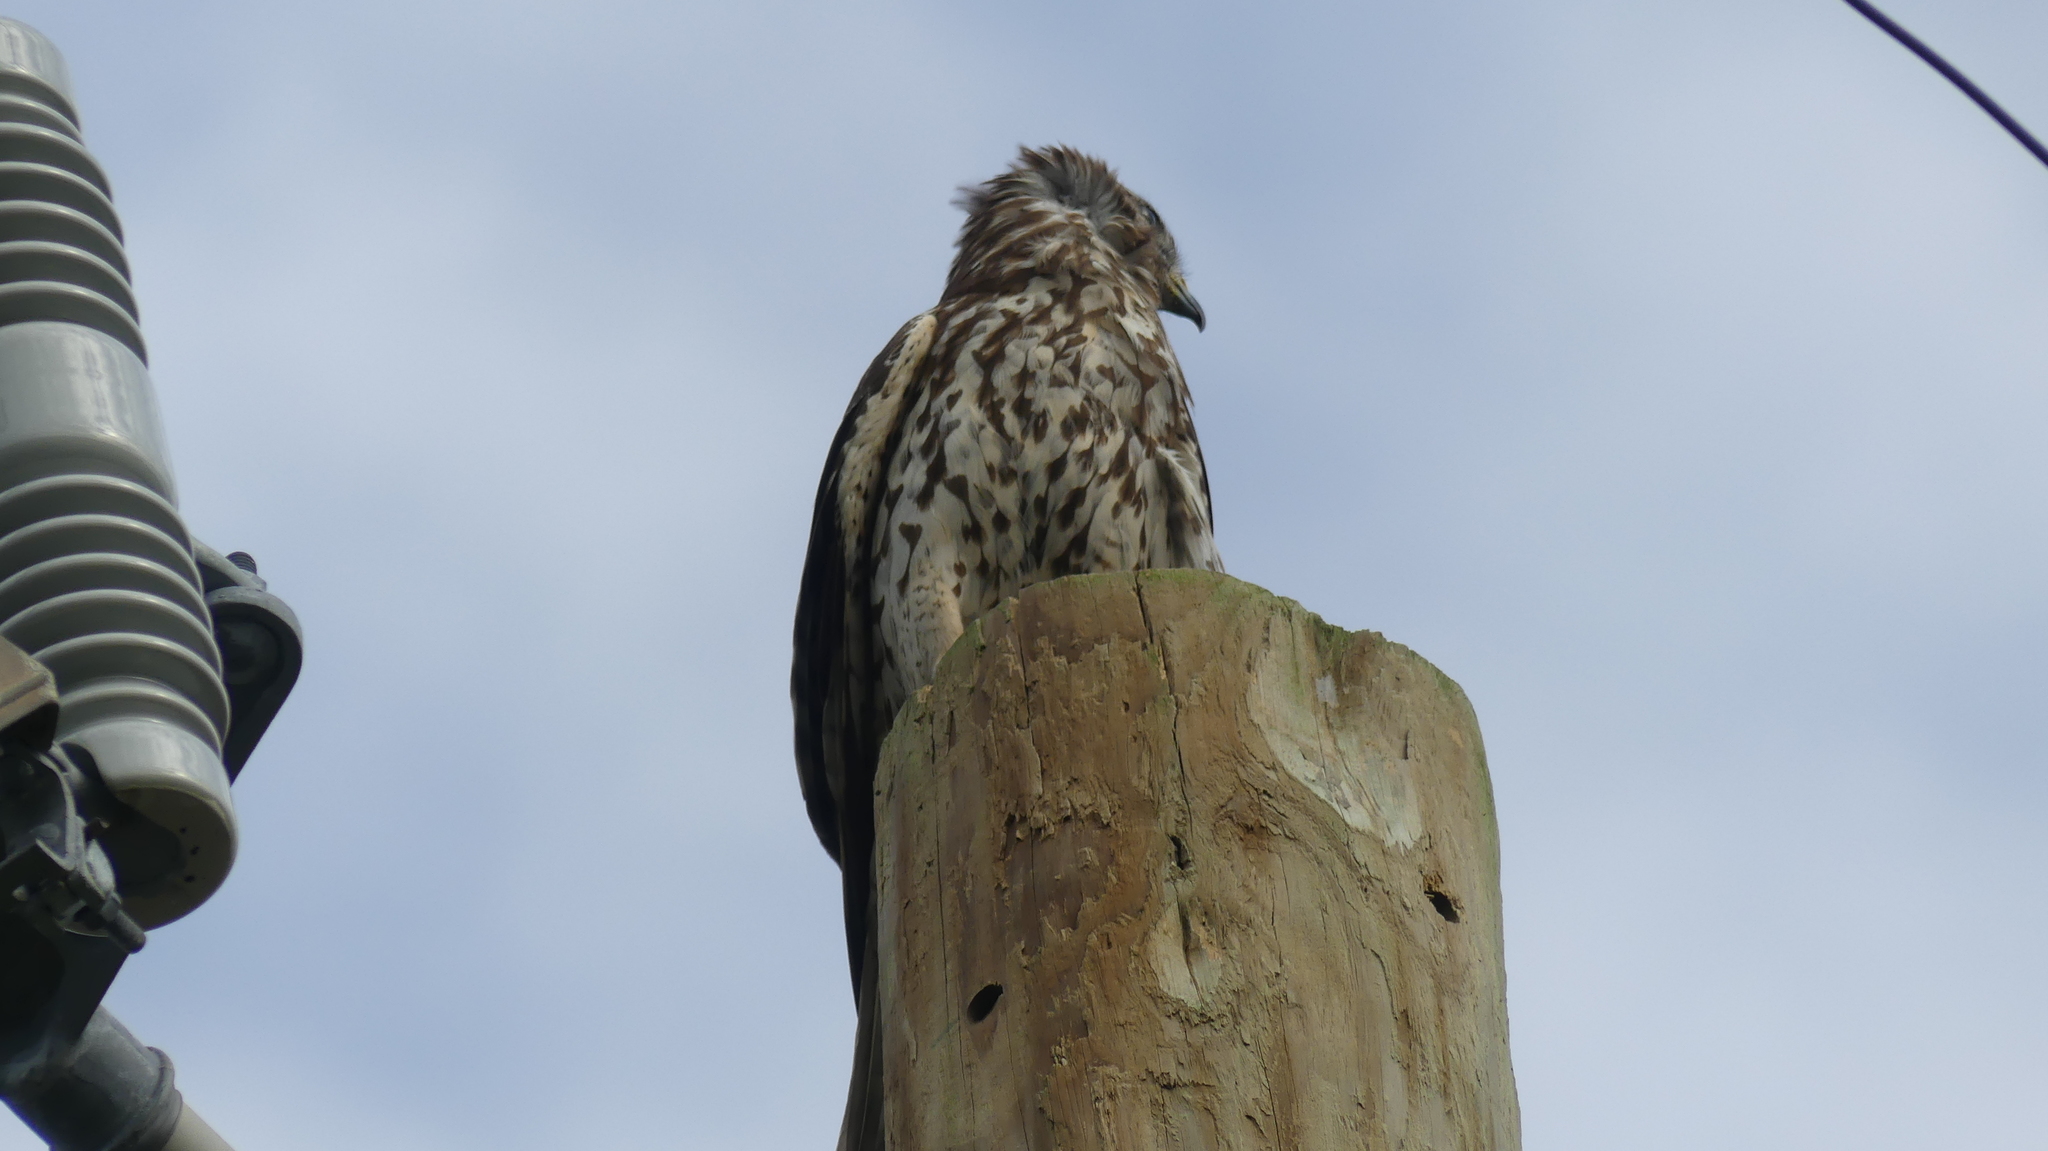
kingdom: Animalia
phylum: Chordata
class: Aves
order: Accipitriformes
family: Accipitridae
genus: Buteo
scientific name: Buteo lineatus
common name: Red-shouldered hawk
